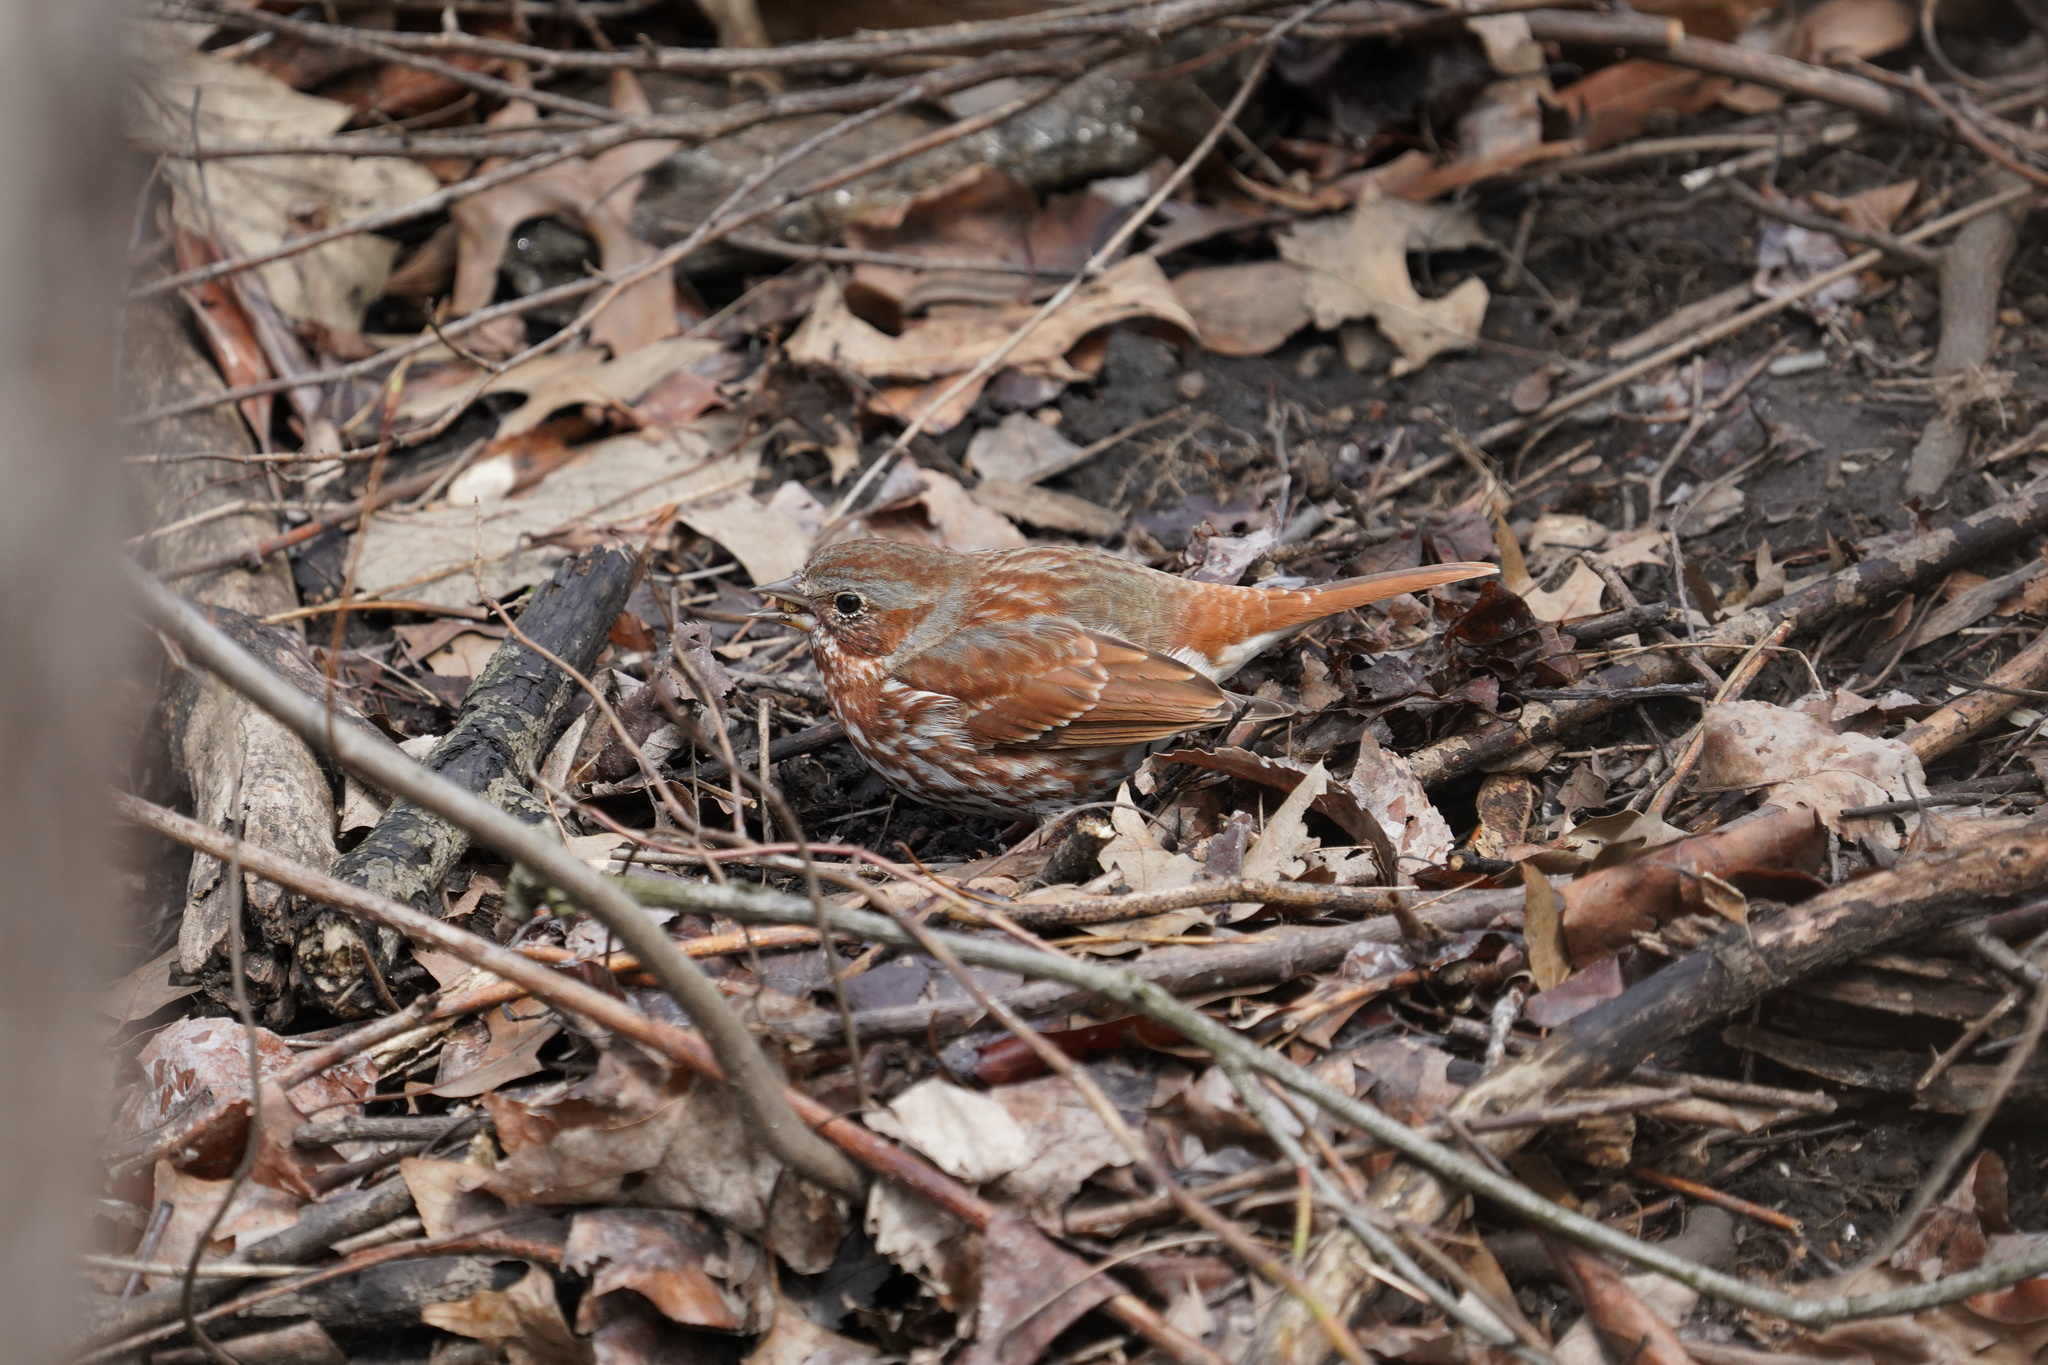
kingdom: Animalia
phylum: Chordata
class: Aves
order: Passeriformes
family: Passerellidae
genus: Passerella
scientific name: Passerella iliaca
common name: Fox sparrow
